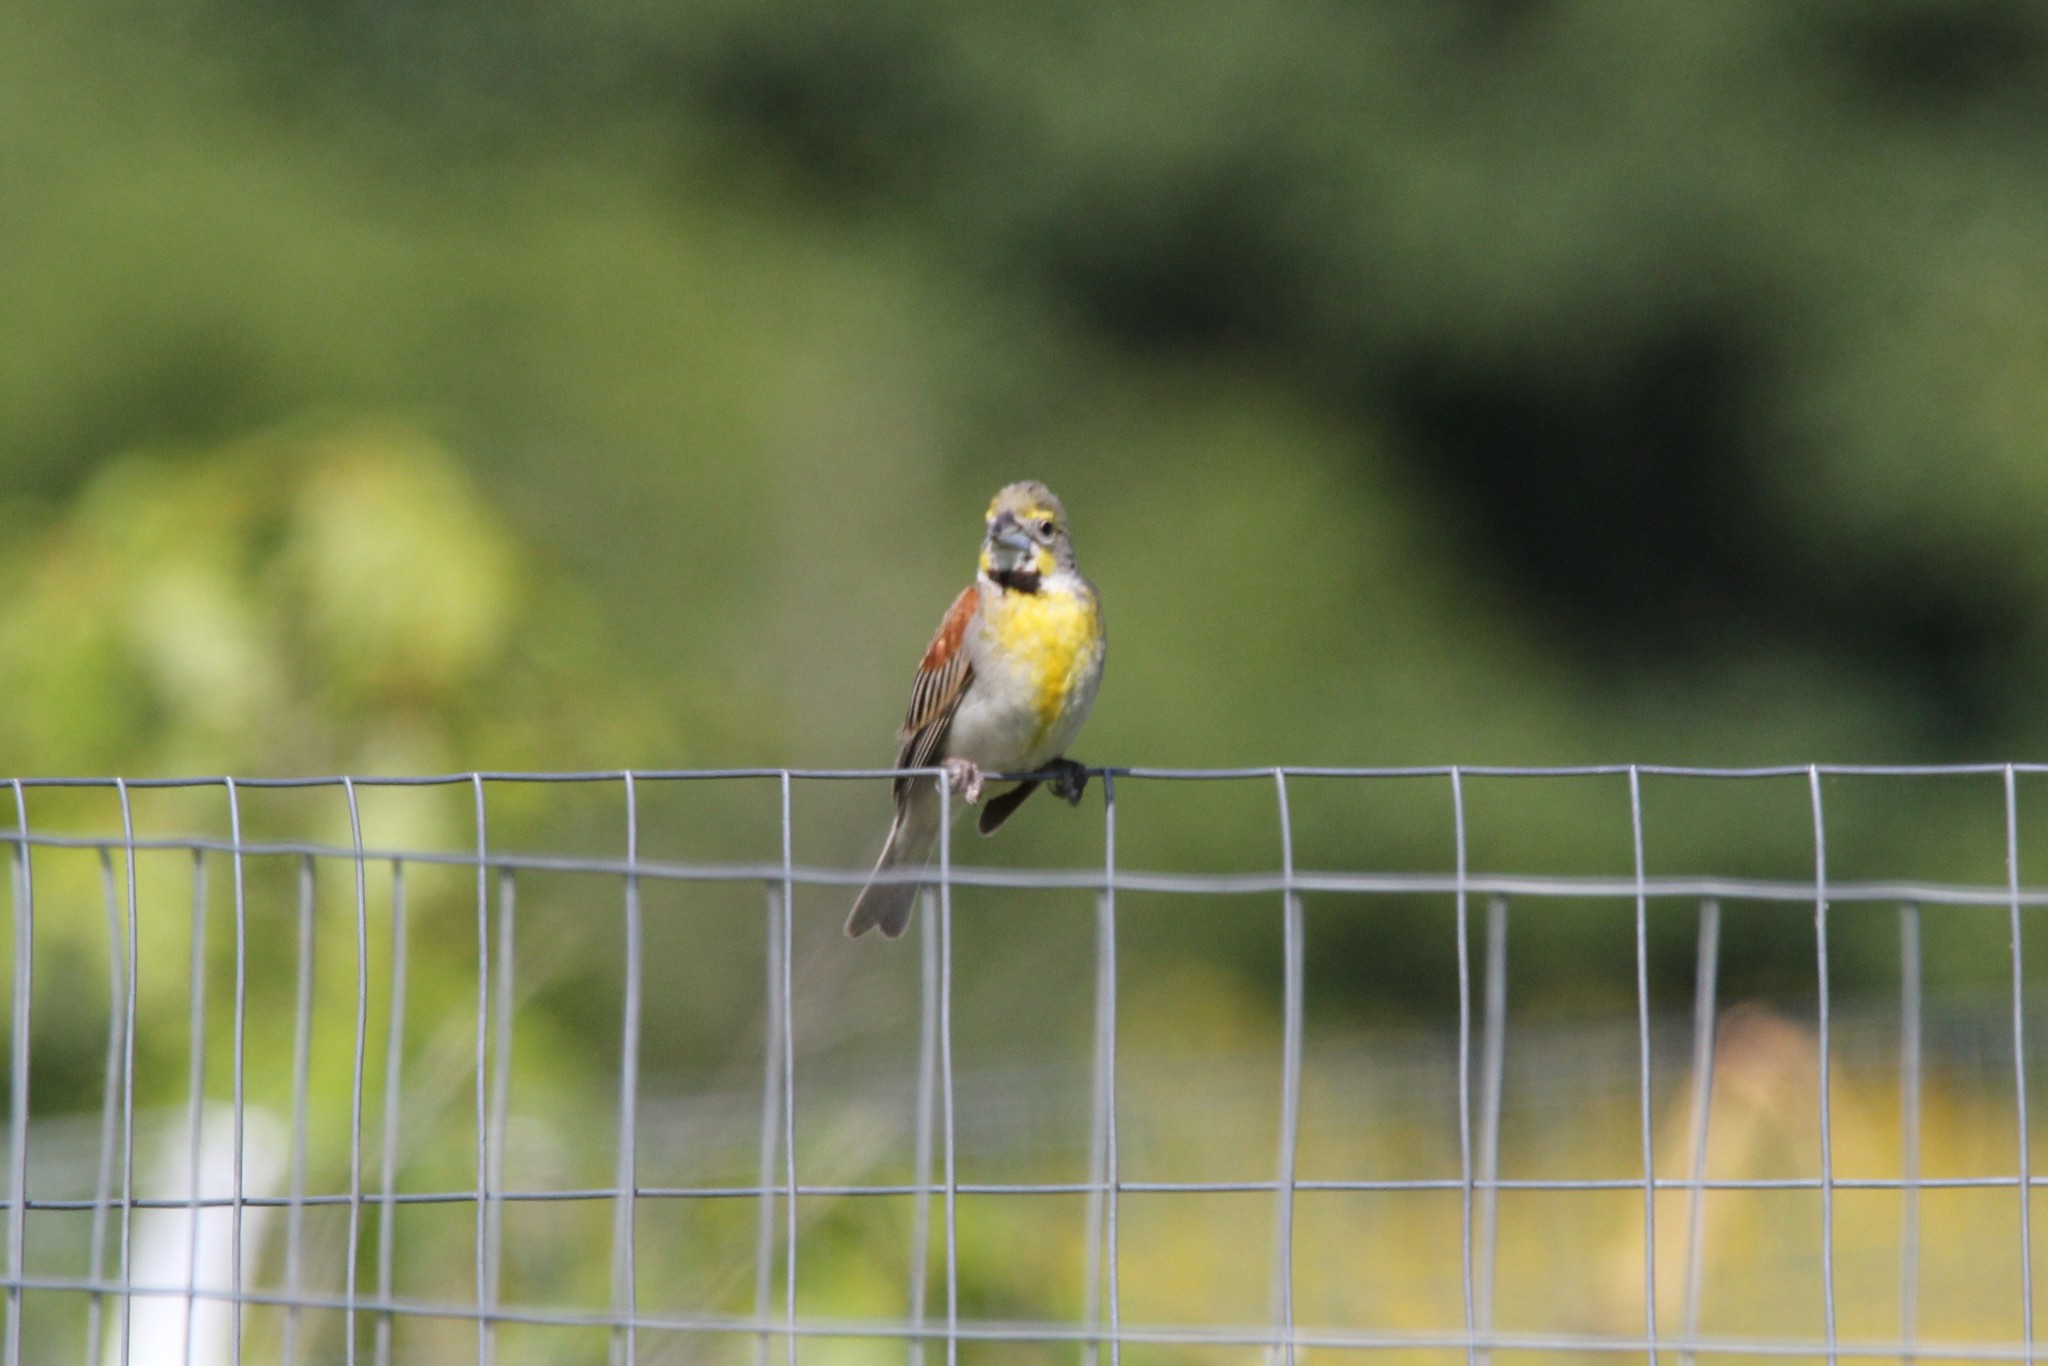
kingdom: Animalia
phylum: Chordata
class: Aves
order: Passeriformes
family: Cardinalidae
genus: Spiza
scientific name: Spiza americana
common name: Dickcissel
